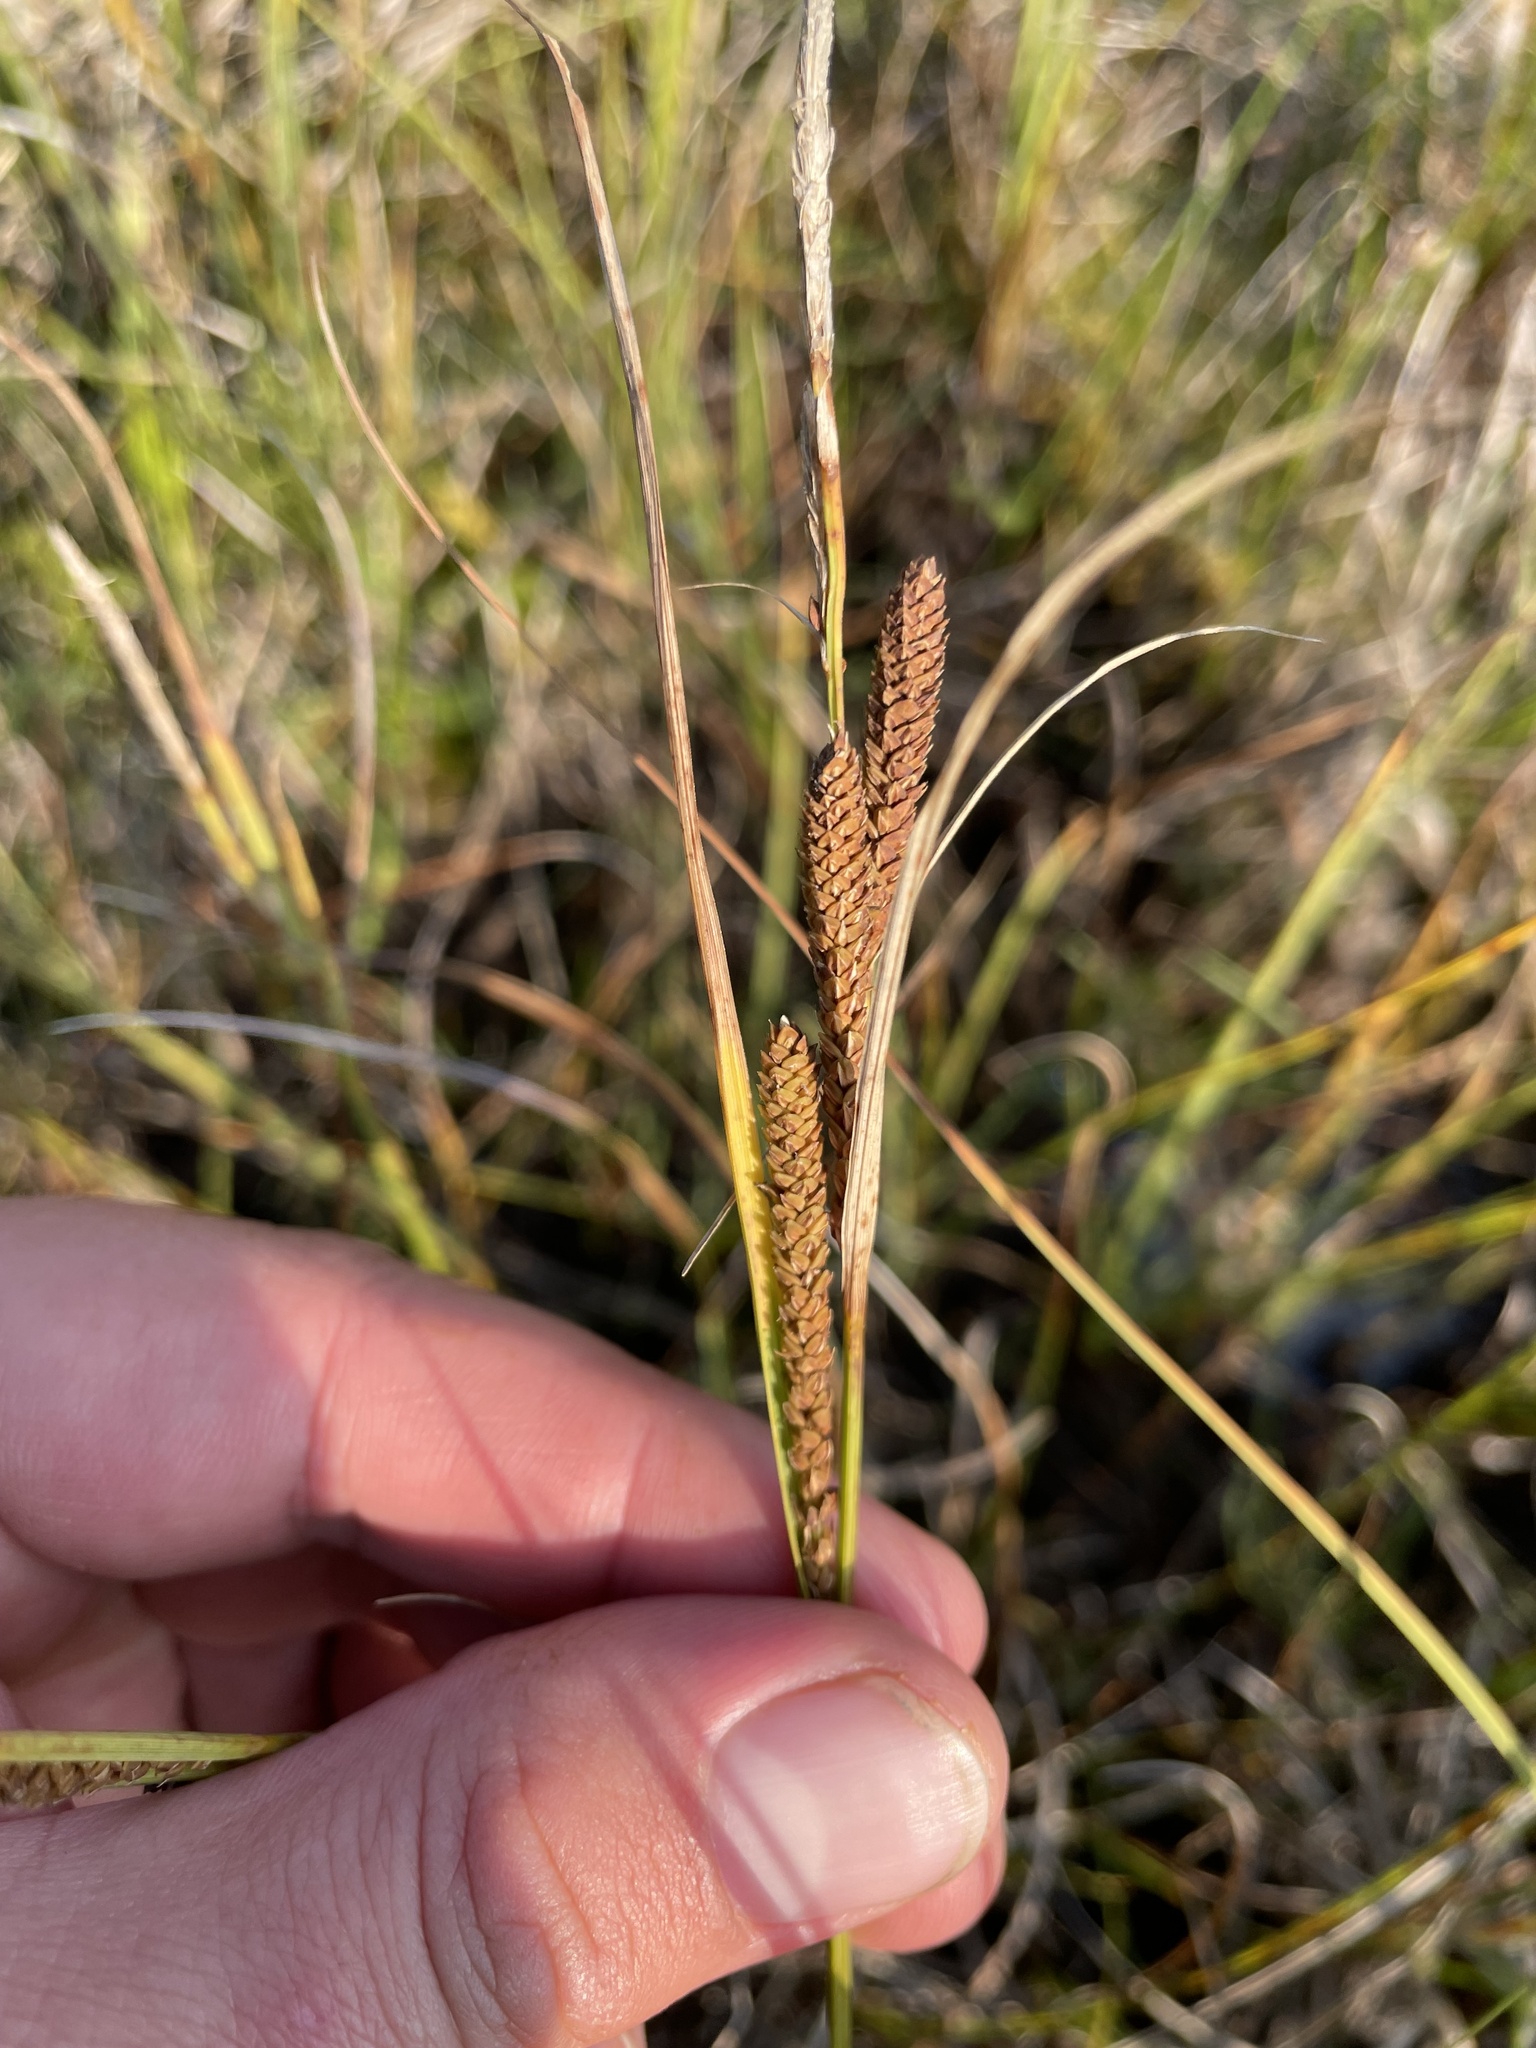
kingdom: Plantae
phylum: Tracheophyta
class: Liliopsida
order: Poales
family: Cyperaceae
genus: Carex
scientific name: Carex aquatilis
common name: Water sedge
